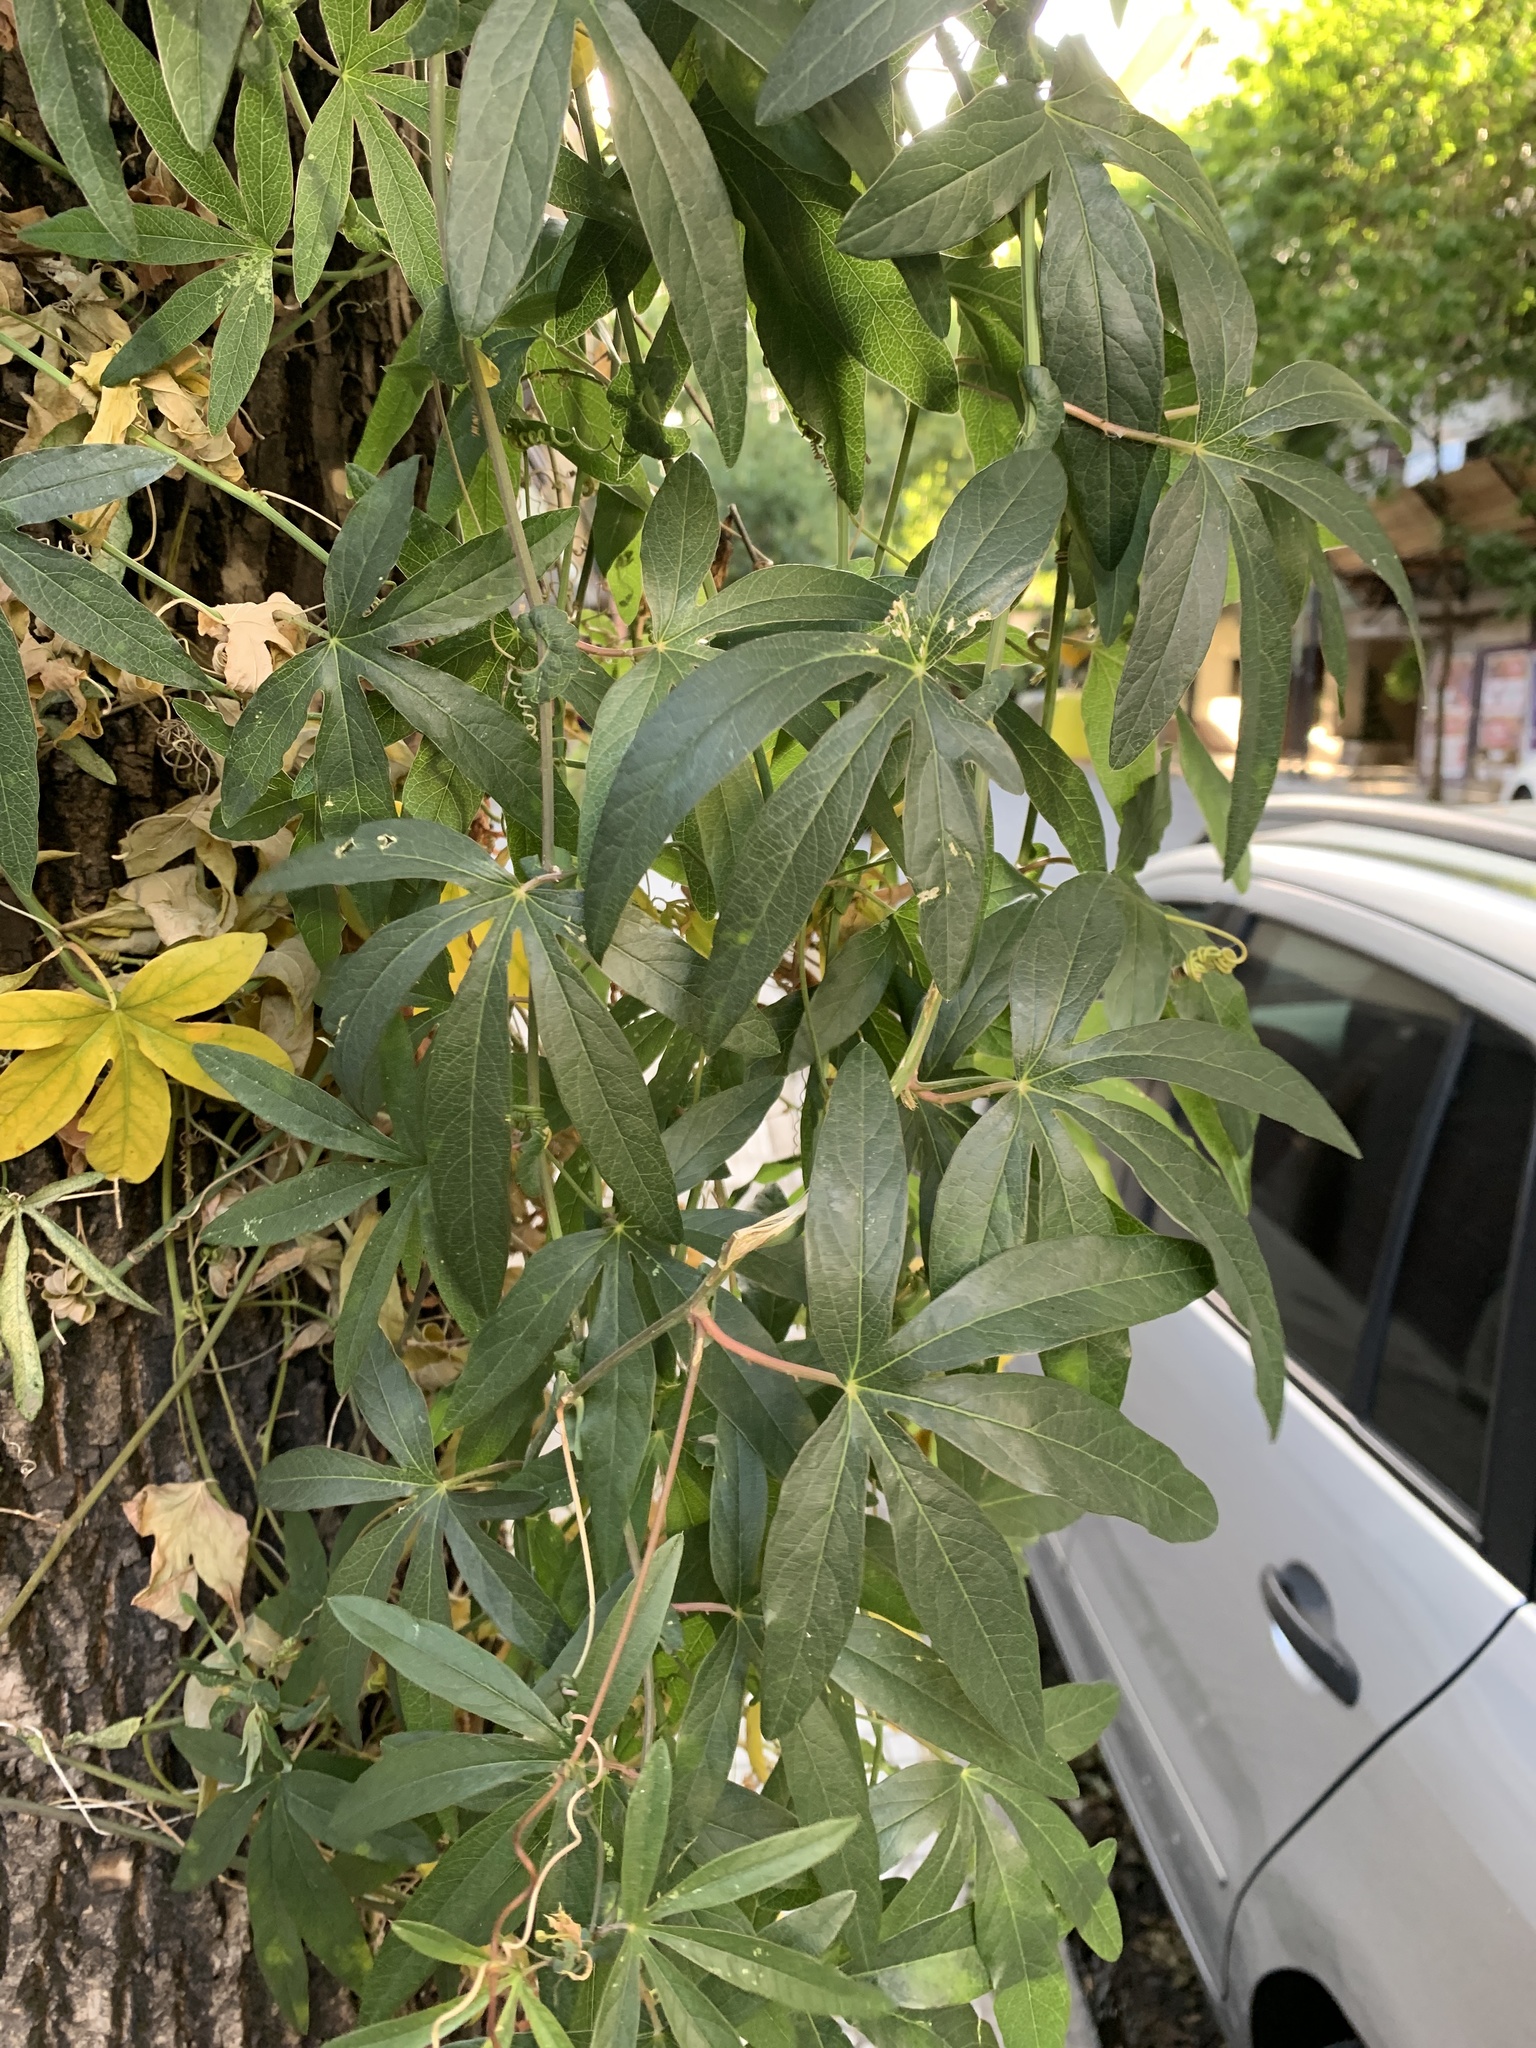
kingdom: Plantae
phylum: Tracheophyta
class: Magnoliopsida
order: Malpighiales
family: Passifloraceae
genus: Passiflora
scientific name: Passiflora caerulea
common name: Blue passionflower
